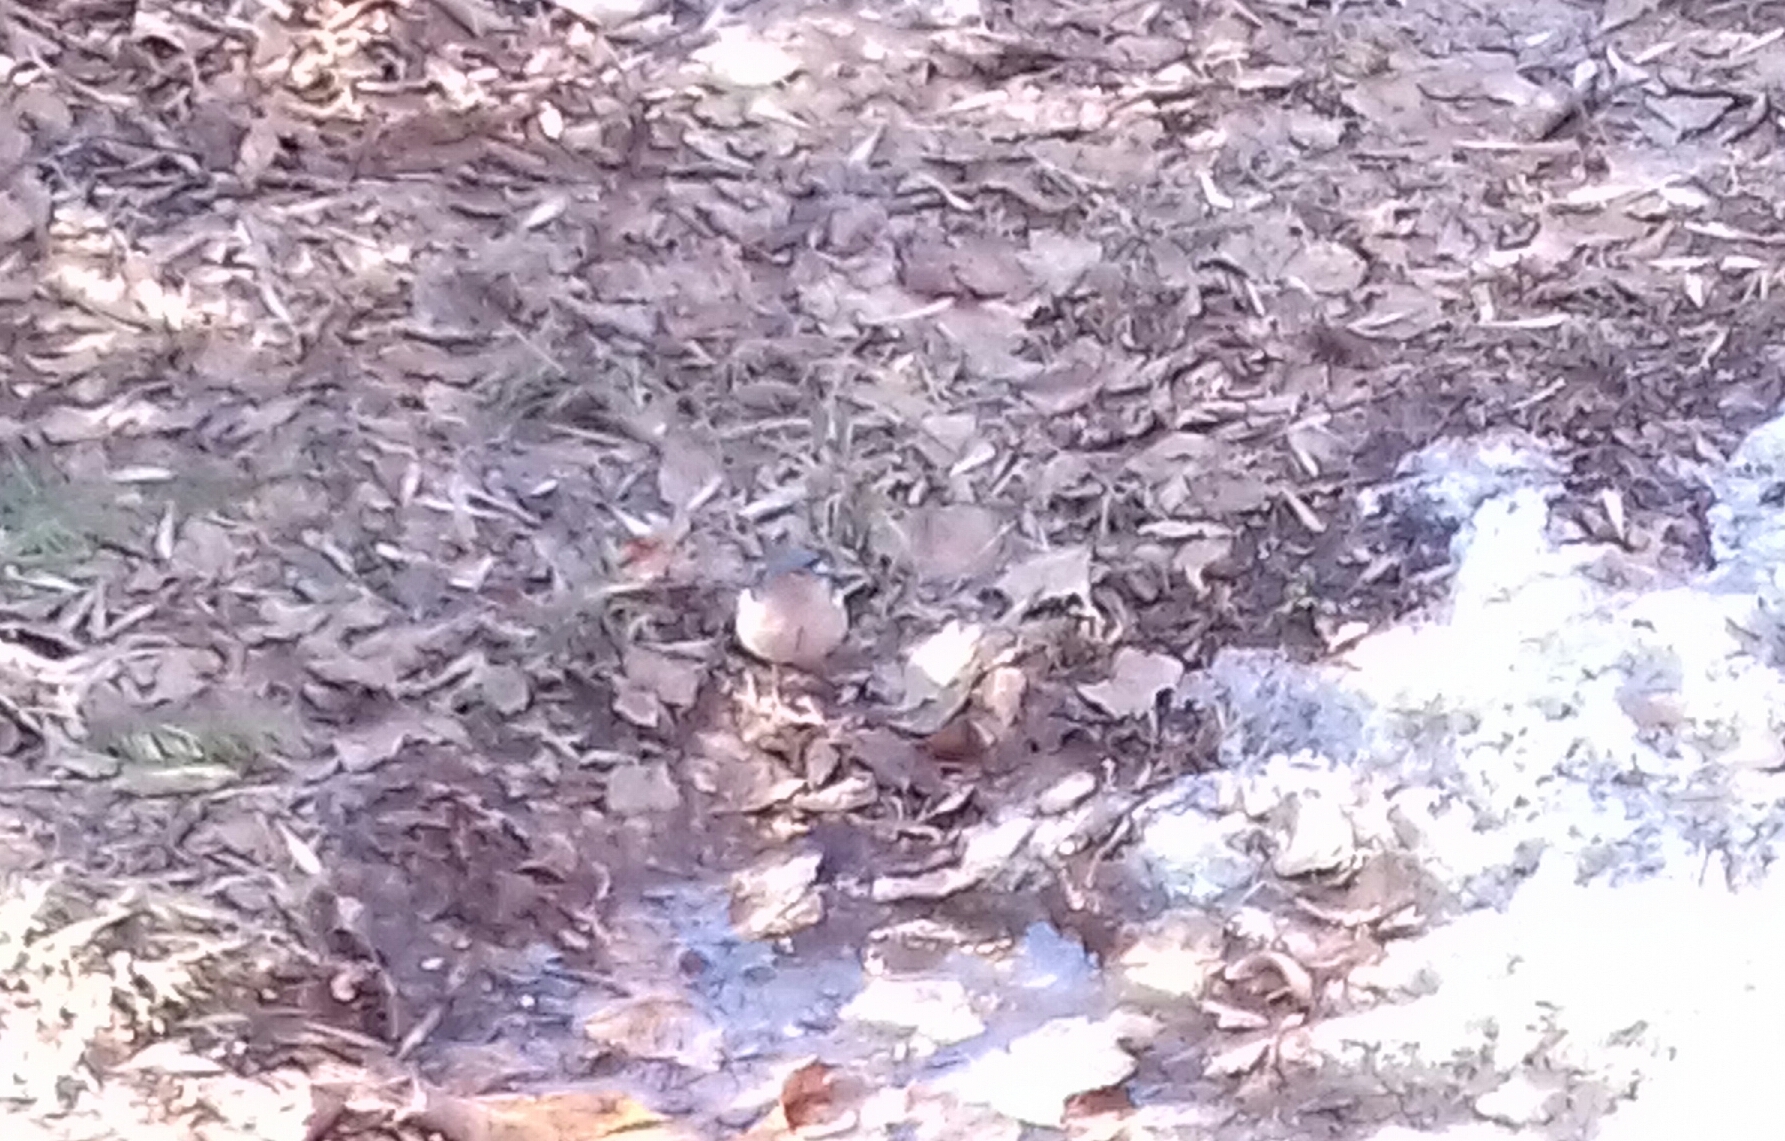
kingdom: Animalia
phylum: Chordata
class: Aves
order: Passeriformes
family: Fringillidae
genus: Fringilla
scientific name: Fringilla coelebs
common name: Common chaffinch
